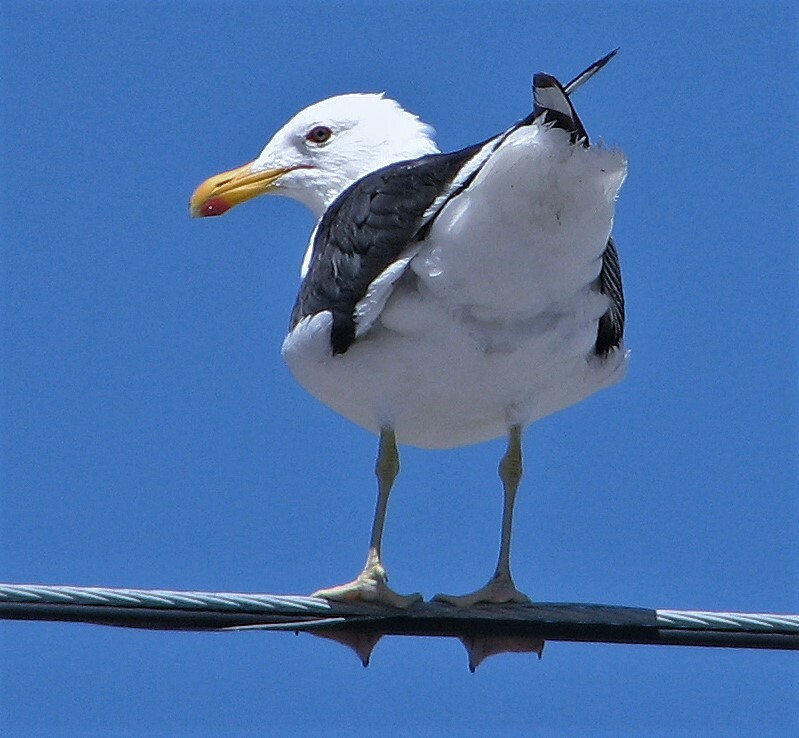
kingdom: Animalia
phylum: Chordata
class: Aves
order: Charadriiformes
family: Laridae
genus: Larus
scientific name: Larus dominicanus
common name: Kelp gull
